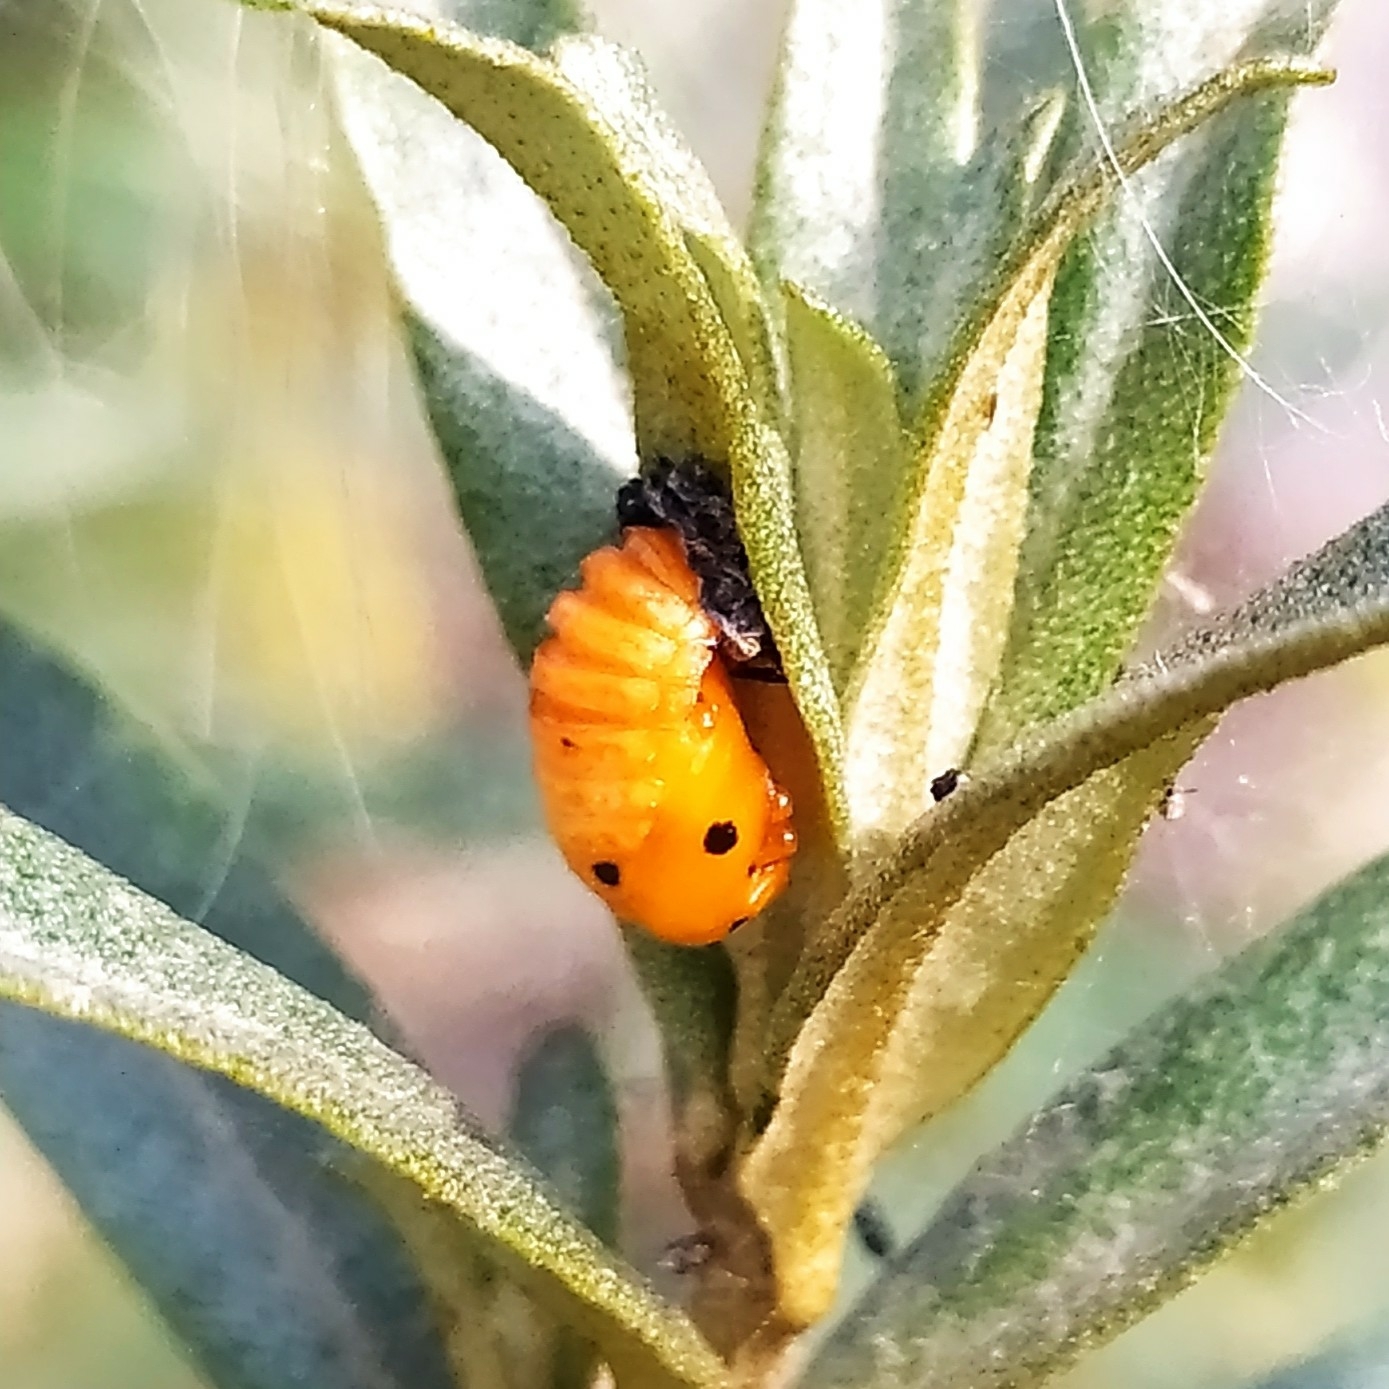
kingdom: Animalia
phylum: Arthropoda
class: Insecta
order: Coleoptera
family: Coccinellidae
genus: Coccinella
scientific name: Coccinella septempunctata
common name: Sevenspotted lady beetle
